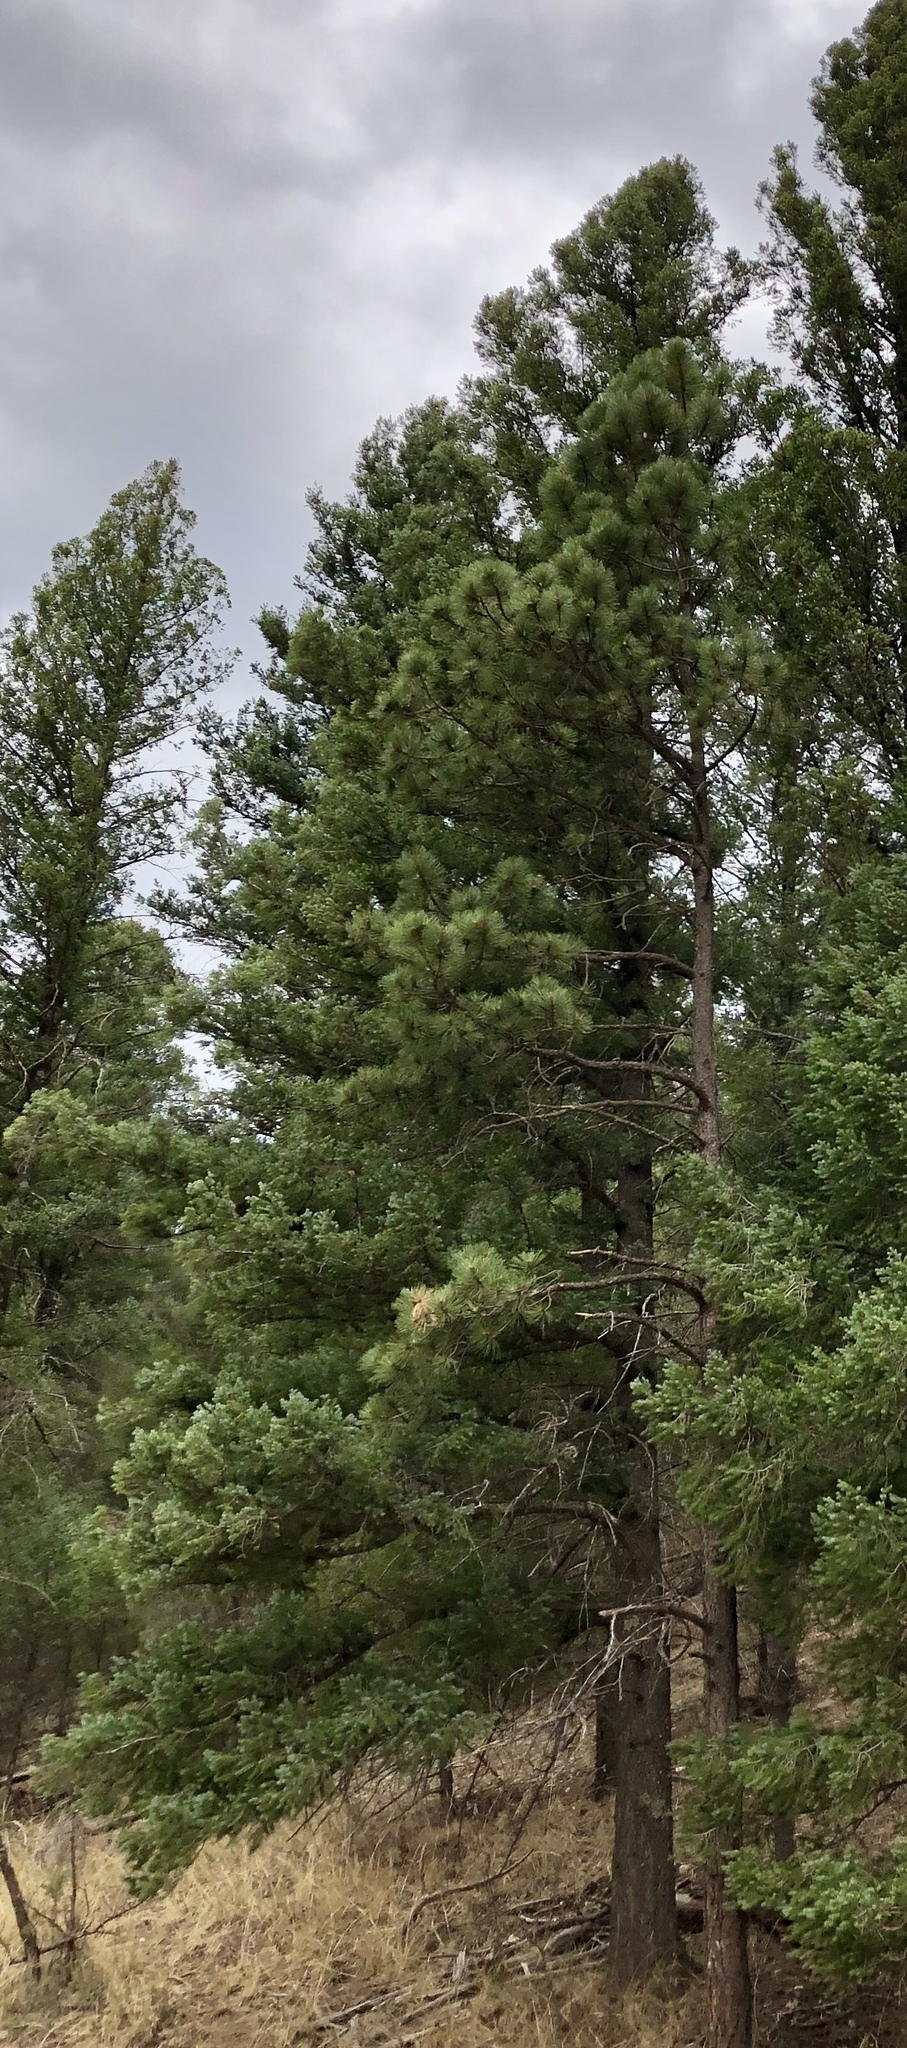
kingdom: Plantae
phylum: Tracheophyta
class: Pinopsida
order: Pinales
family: Pinaceae
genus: Pinus
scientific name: Pinus ponderosa
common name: Western yellow-pine
